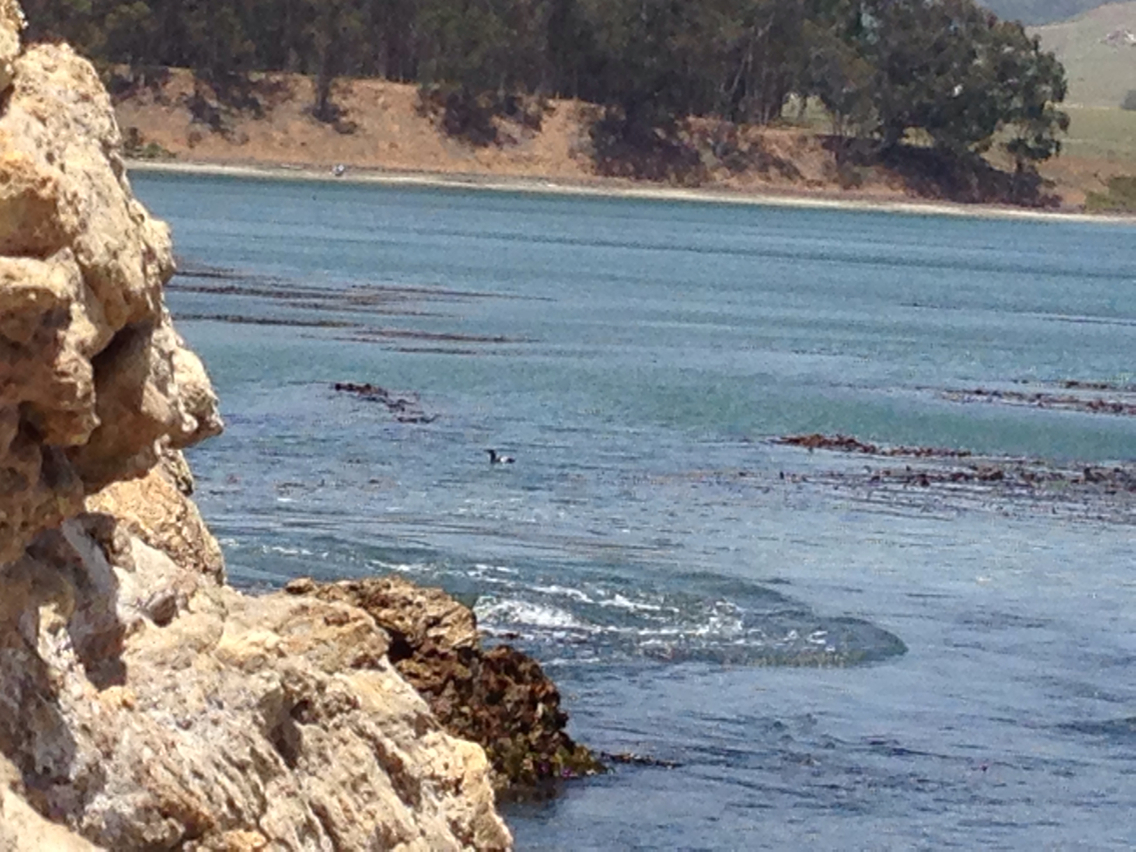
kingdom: Animalia
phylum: Chordata
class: Aves
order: Charadriiformes
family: Alcidae
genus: Cepphus
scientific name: Cepphus columba
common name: Pigeon guillemot
